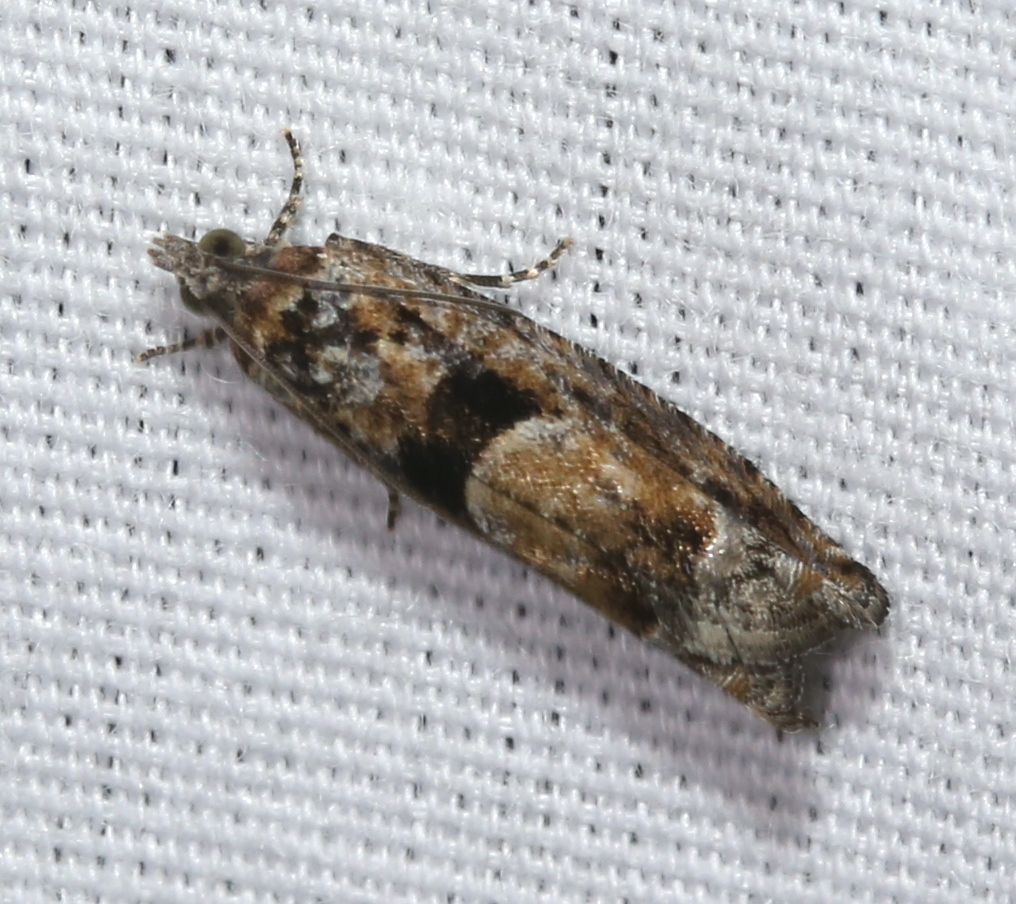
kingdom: Animalia
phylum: Arthropoda
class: Insecta
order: Lepidoptera
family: Tortricidae
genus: Pseudexentera
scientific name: Pseudexentera hodsoni
